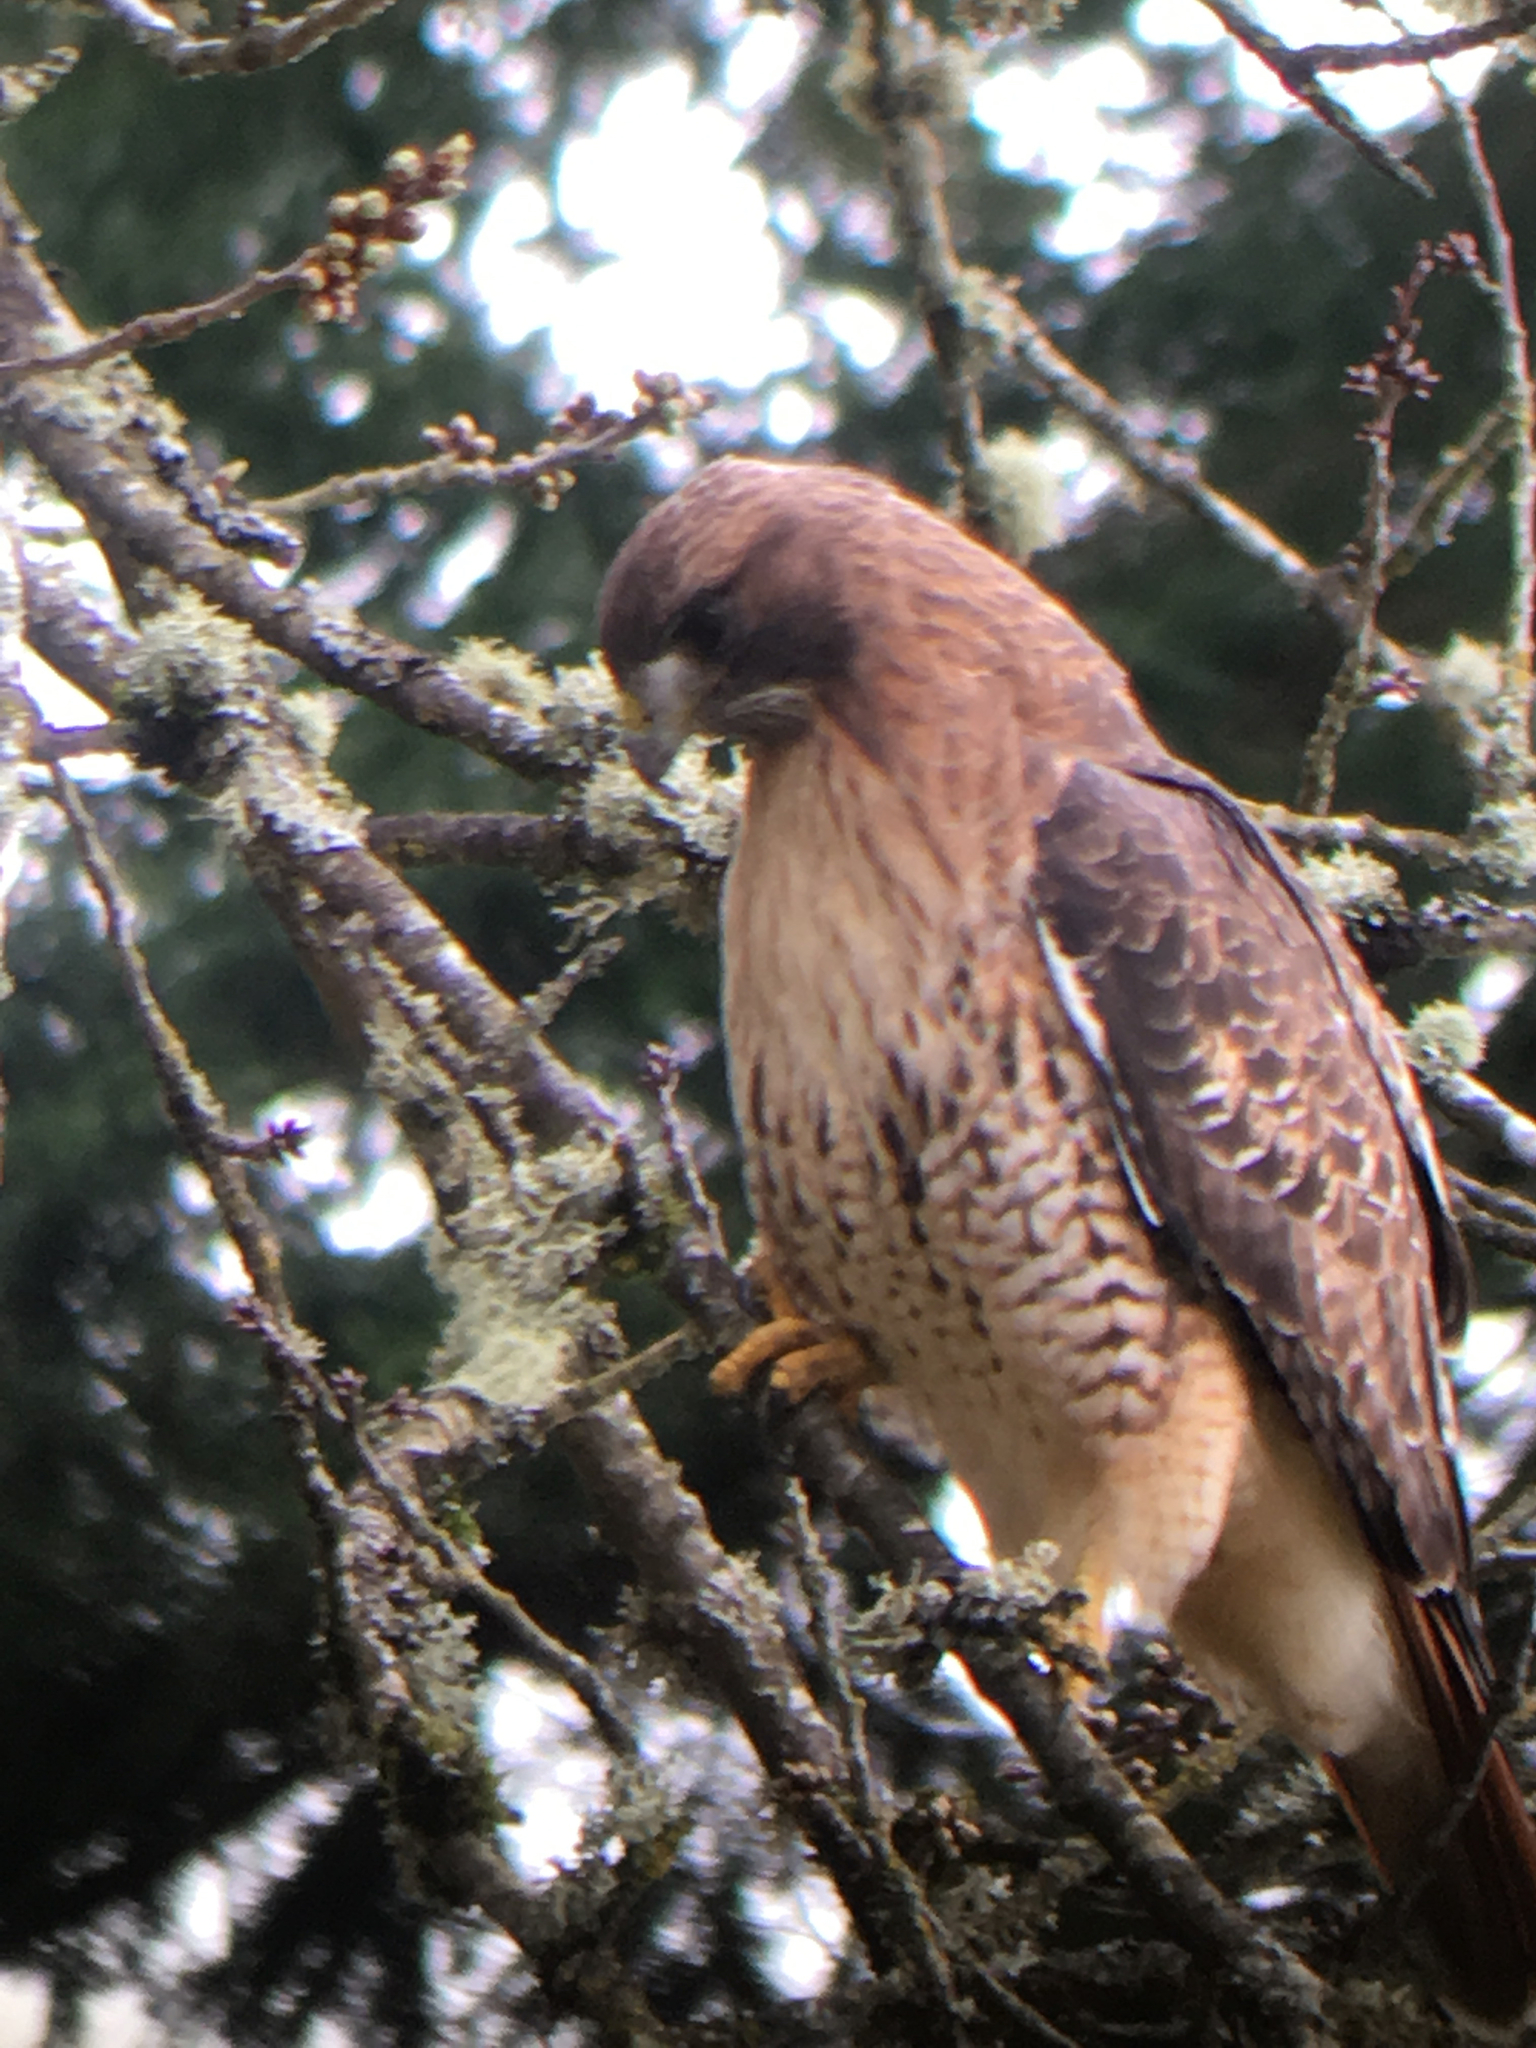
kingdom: Animalia
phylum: Chordata
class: Aves
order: Accipitriformes
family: Accipitridae
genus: Buteo
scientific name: Buteo jamaicensis
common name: Red-tailed hawk
